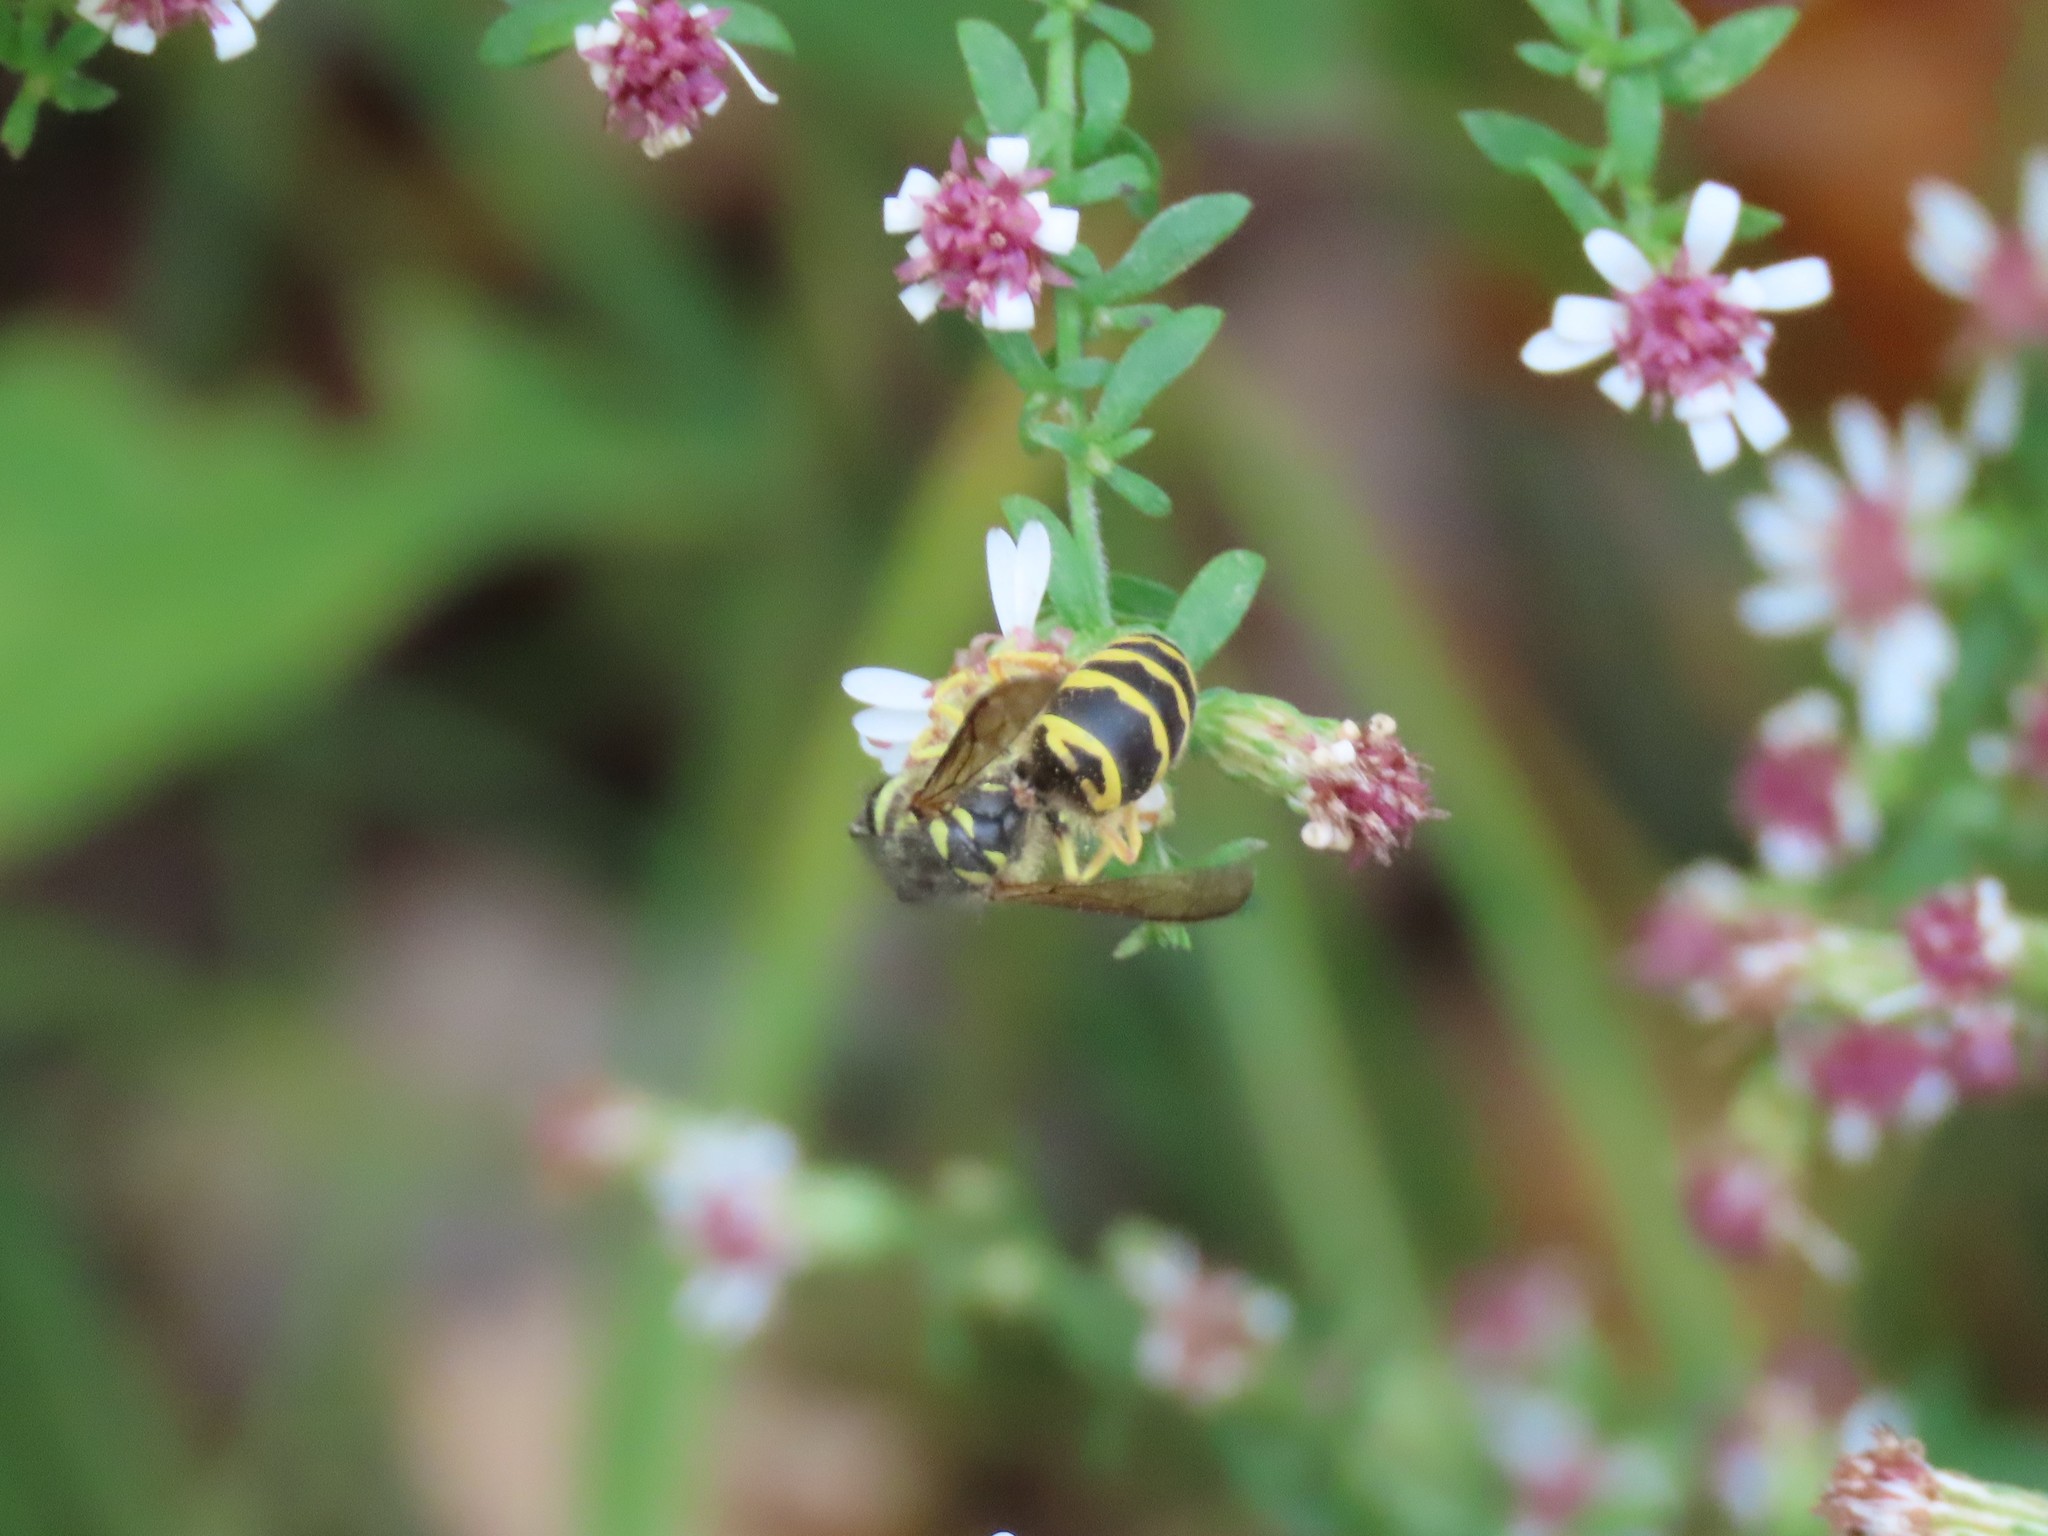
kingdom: Animalia
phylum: Arthropoda
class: Insecta
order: Hymenoptera
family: Vespidae
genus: Vespula
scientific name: Vespula maculifrons
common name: Eastern yellowjacket
